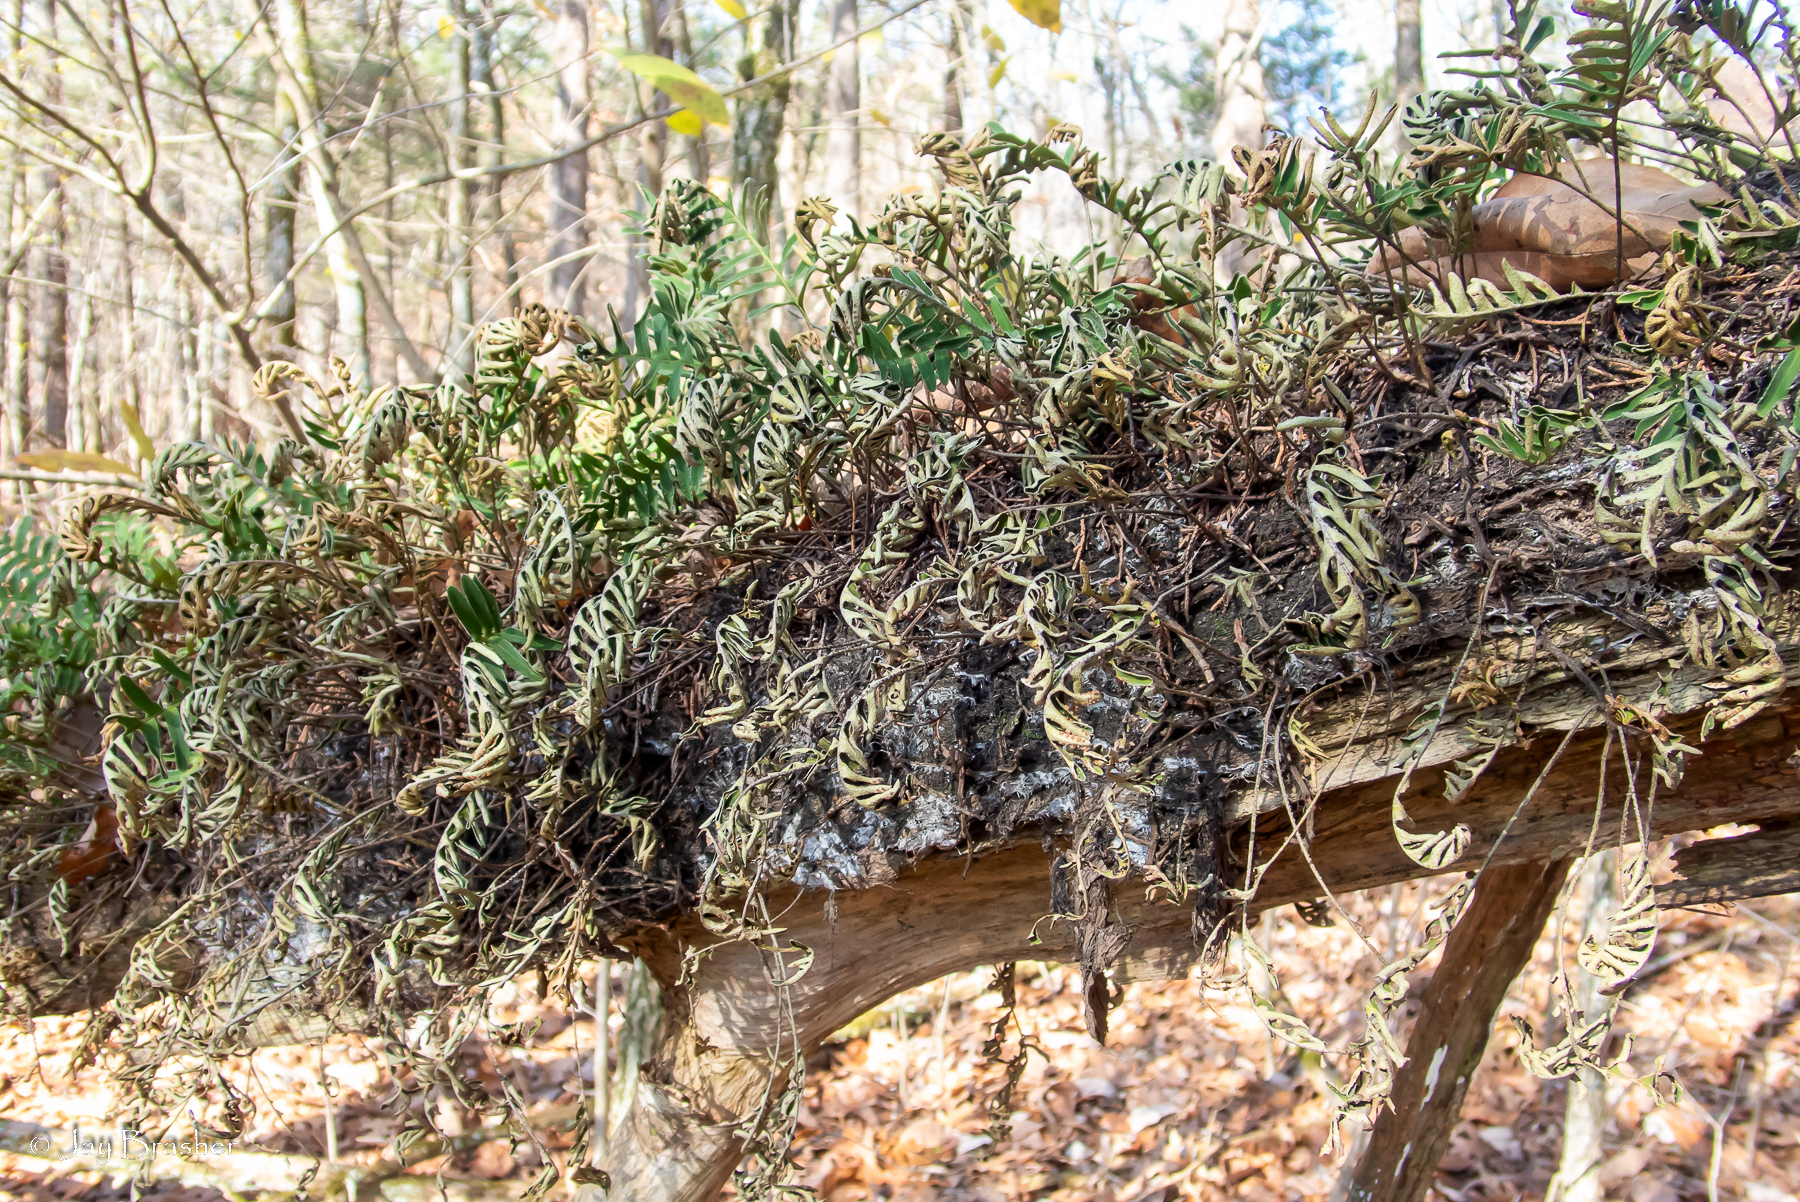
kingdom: Plantae
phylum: Tracheophyta
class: Polypodiopsida
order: Polypodiales
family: Polypodiaceae
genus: Pleopeltis
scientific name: Pleopeltis michauxiana
